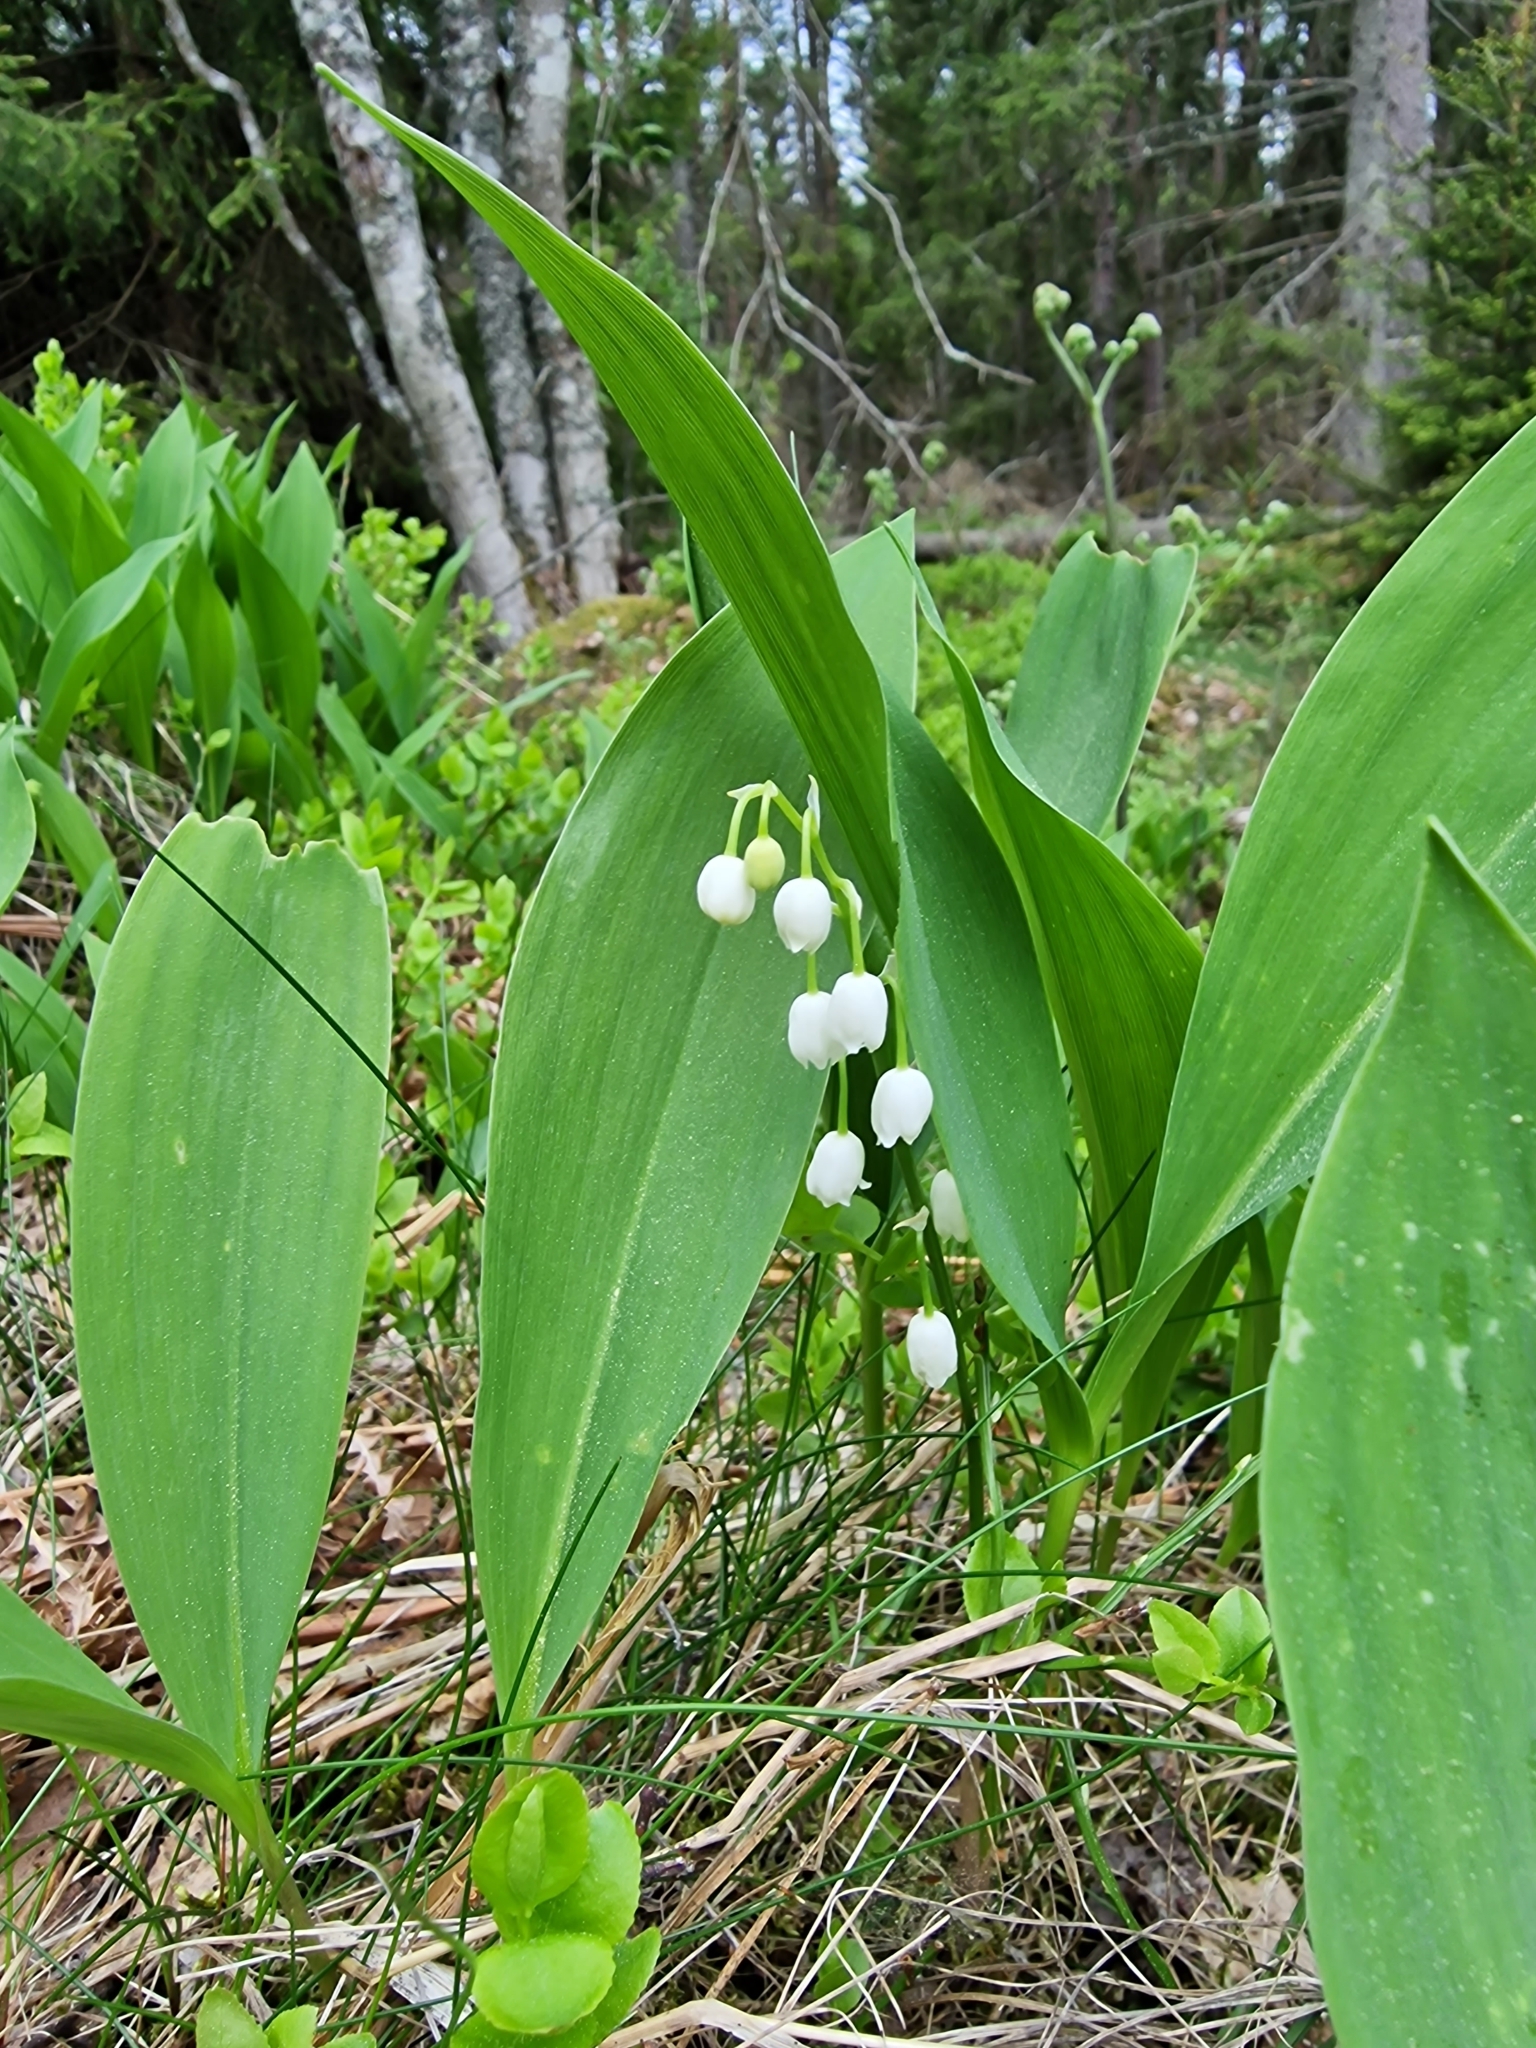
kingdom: Plantae
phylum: Tracheophyta
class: Liliopsida
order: Asparagales
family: Asparagaceae
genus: Convallaria
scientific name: Convallaria majalis
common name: Lily-of-the-valley
